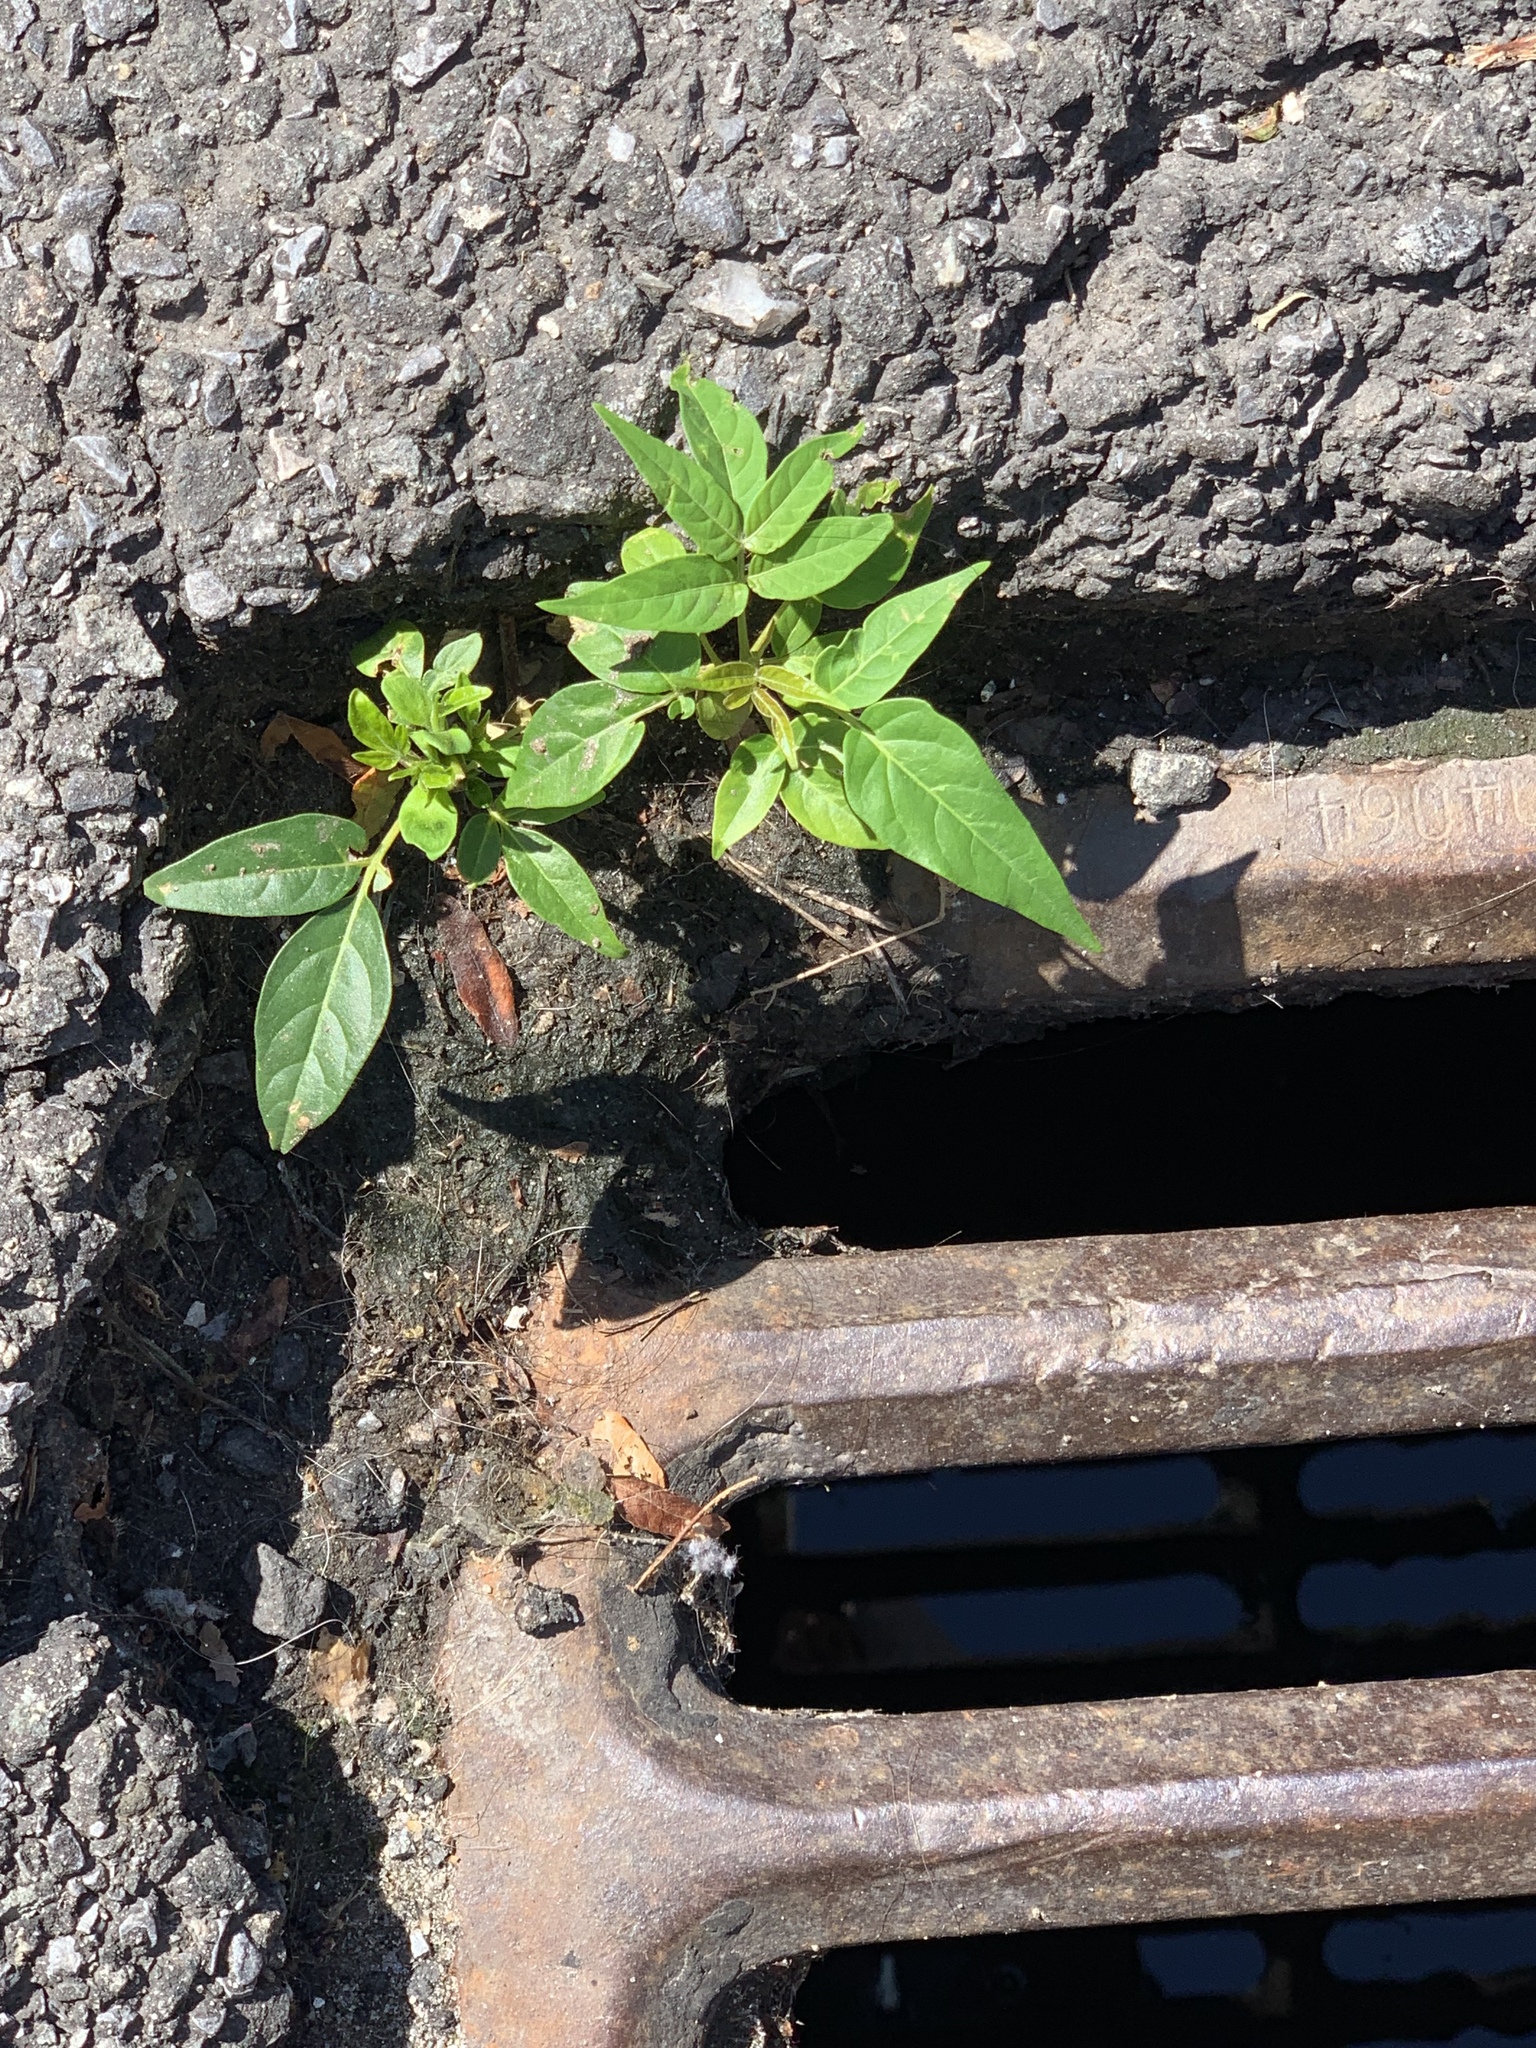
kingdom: Plantae
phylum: Tracheophyta
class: Magnoliopsida
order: Sapindales
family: Simaroubaceae
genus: Ailanthus
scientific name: Ailanthus altissima
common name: Tree-of-heaven
